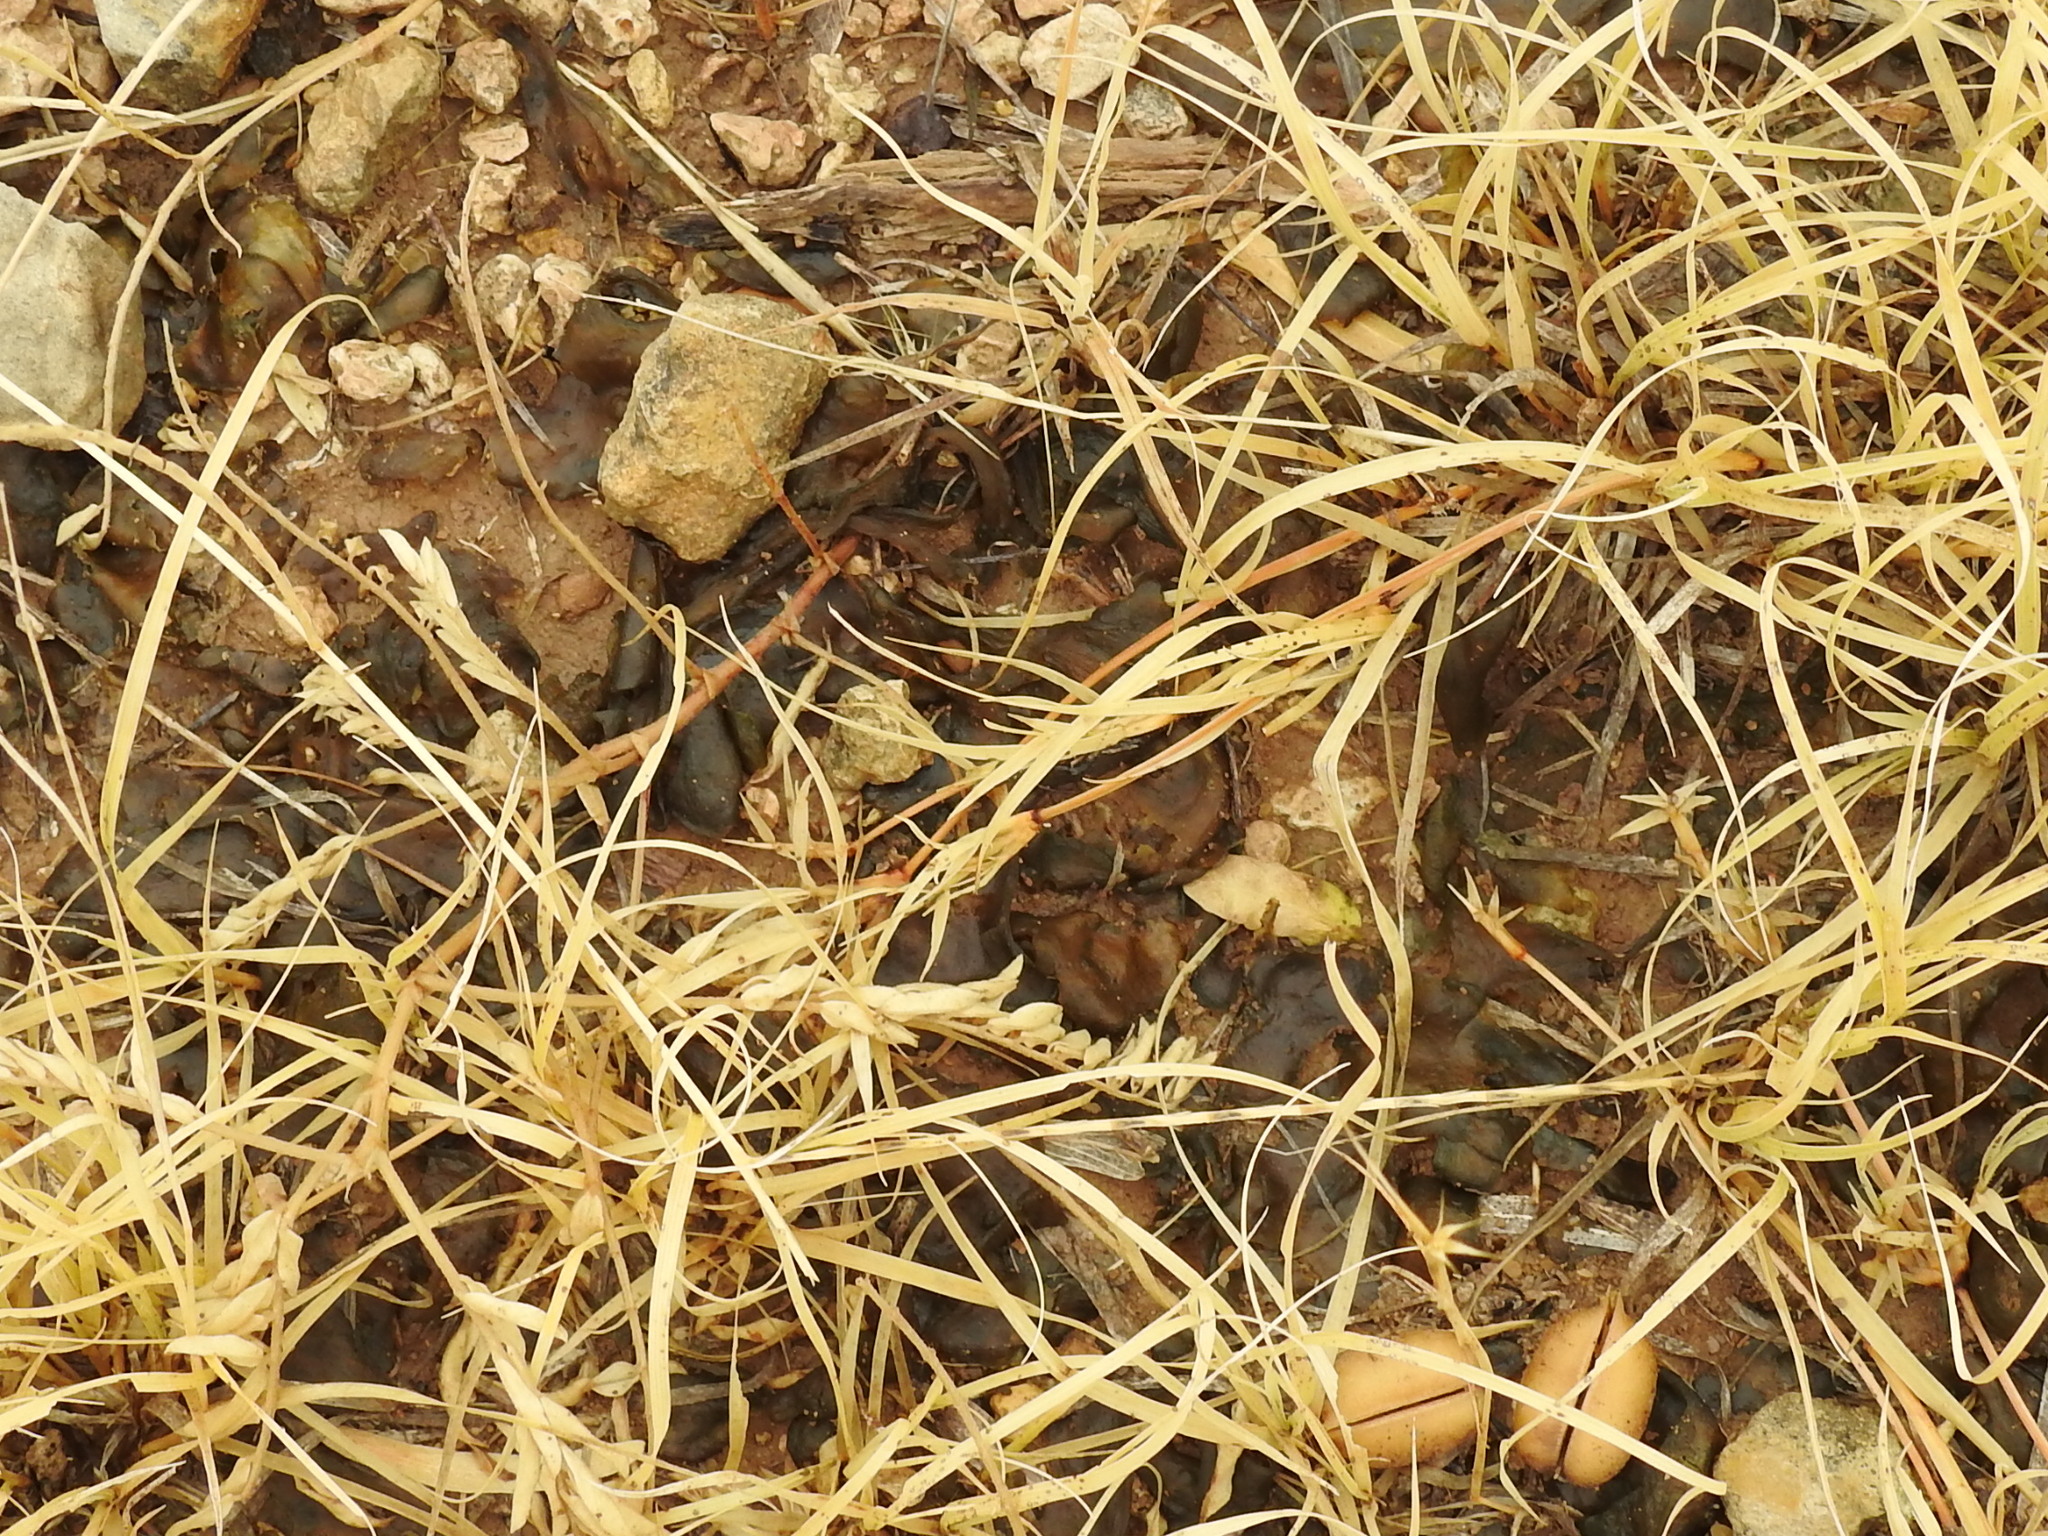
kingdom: Bacteria
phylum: Cyanobacteria
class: Cyanobacteriia
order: Cyanobacteriales
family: Nostocaceae
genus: Nostoc
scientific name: Nostoc commune
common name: Star jelly
